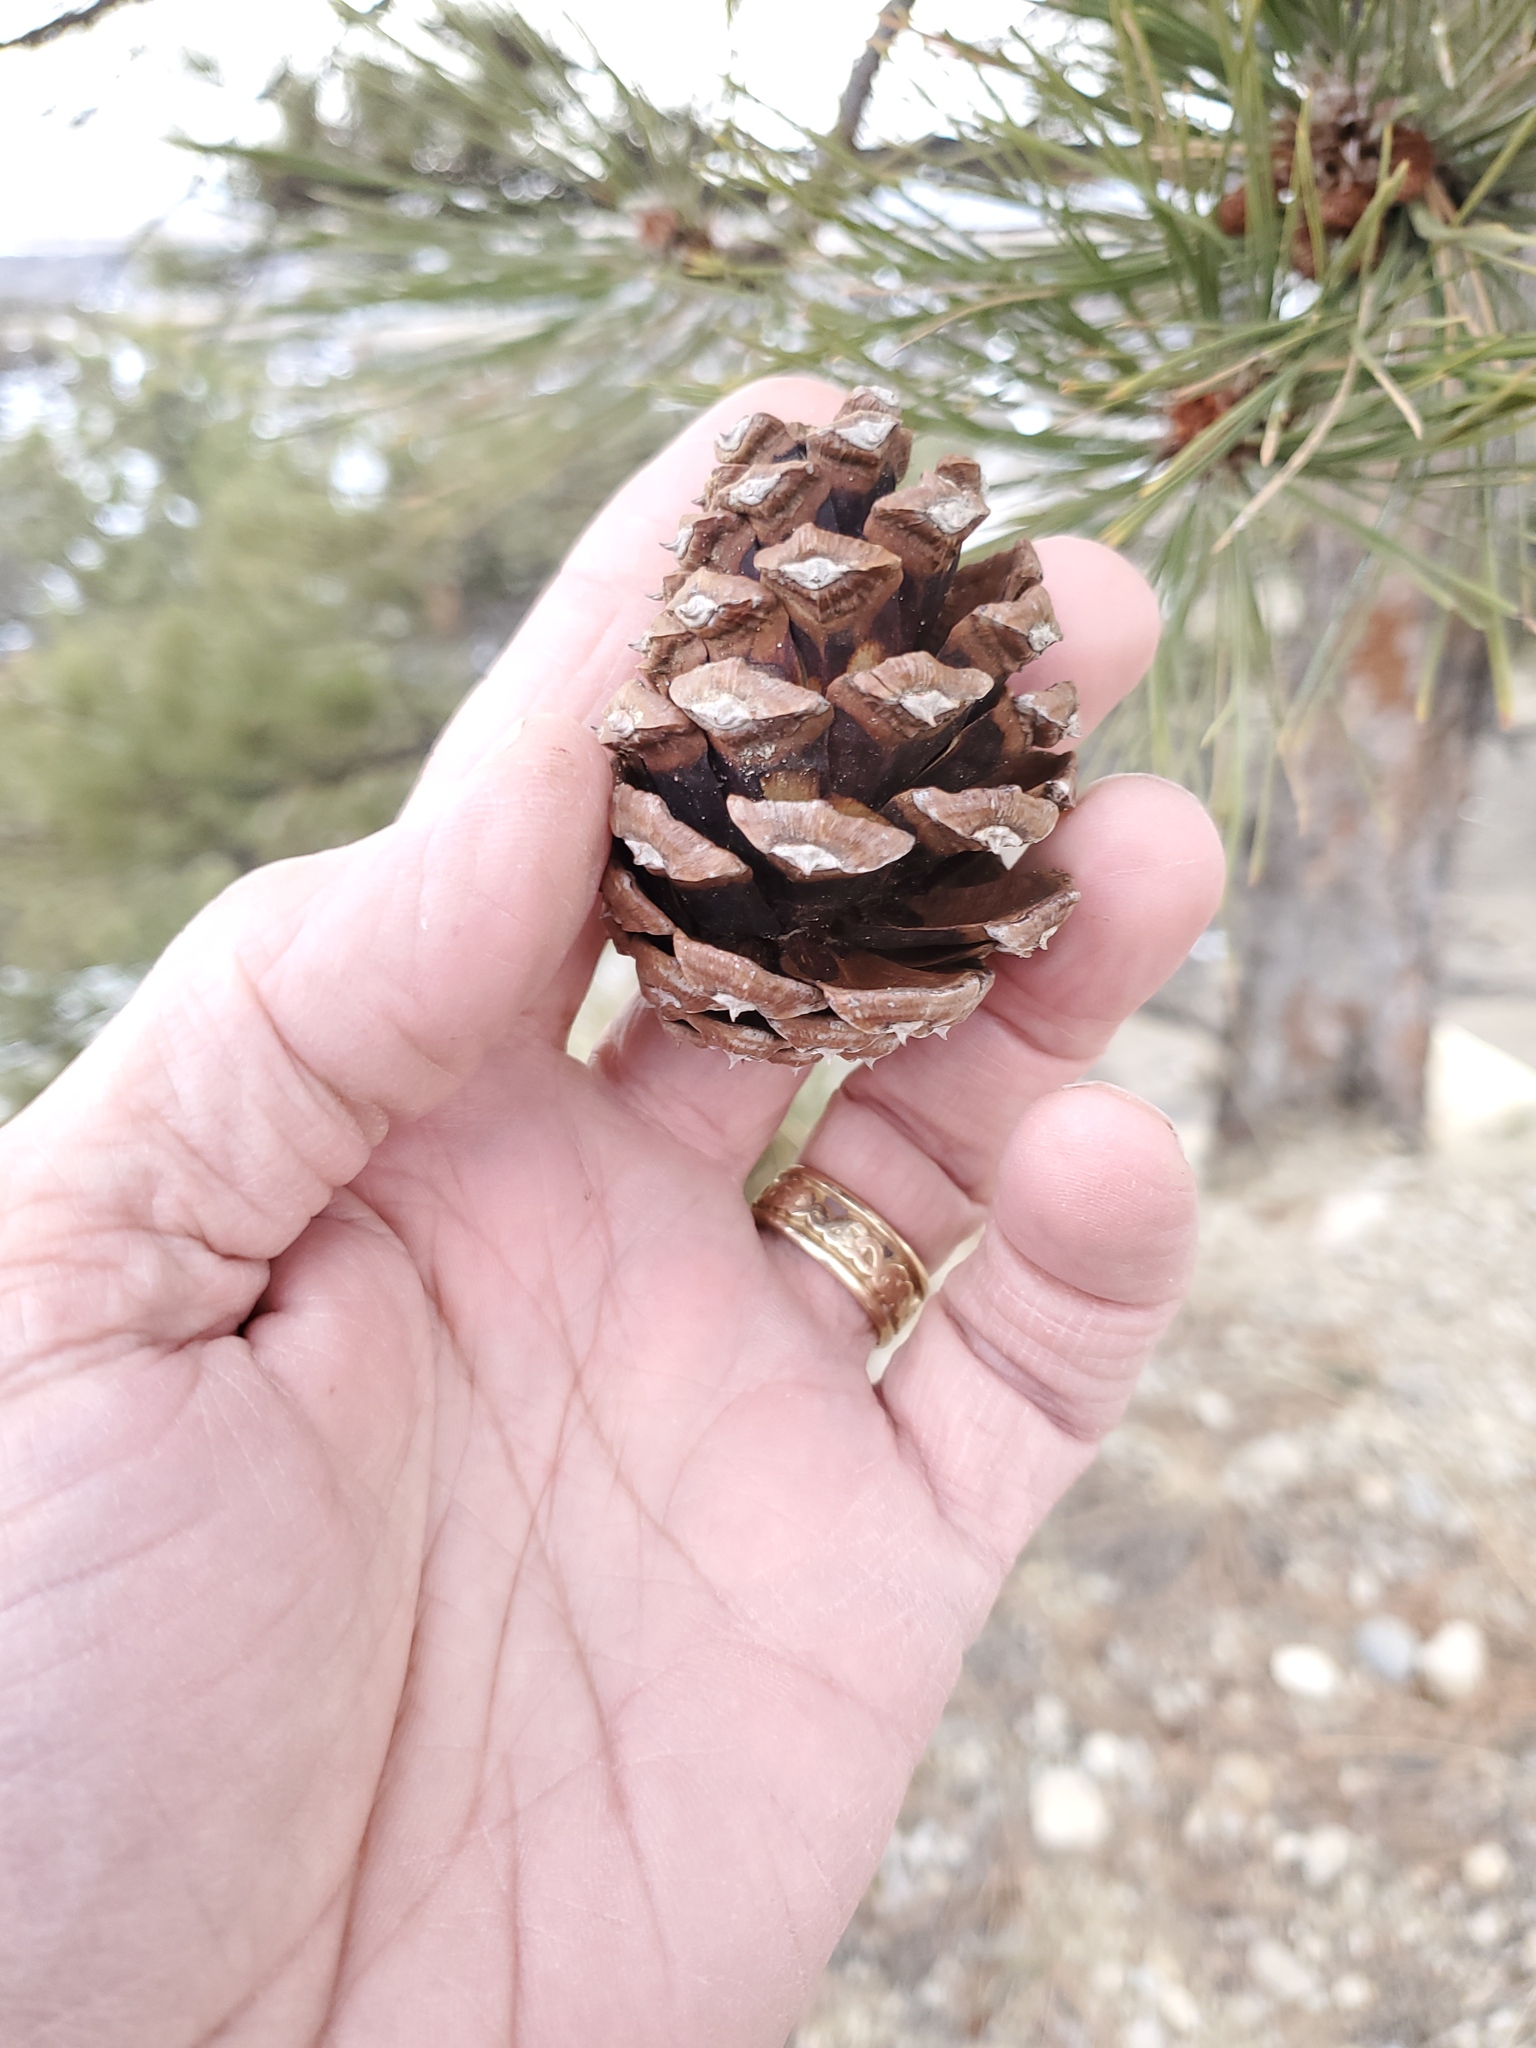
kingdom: Plantae
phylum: Tracheophyta
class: Pinopsida
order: Pinales
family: Pinaceae
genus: Pinus
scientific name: Pinus ponderosa
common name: Western yellow-pine
